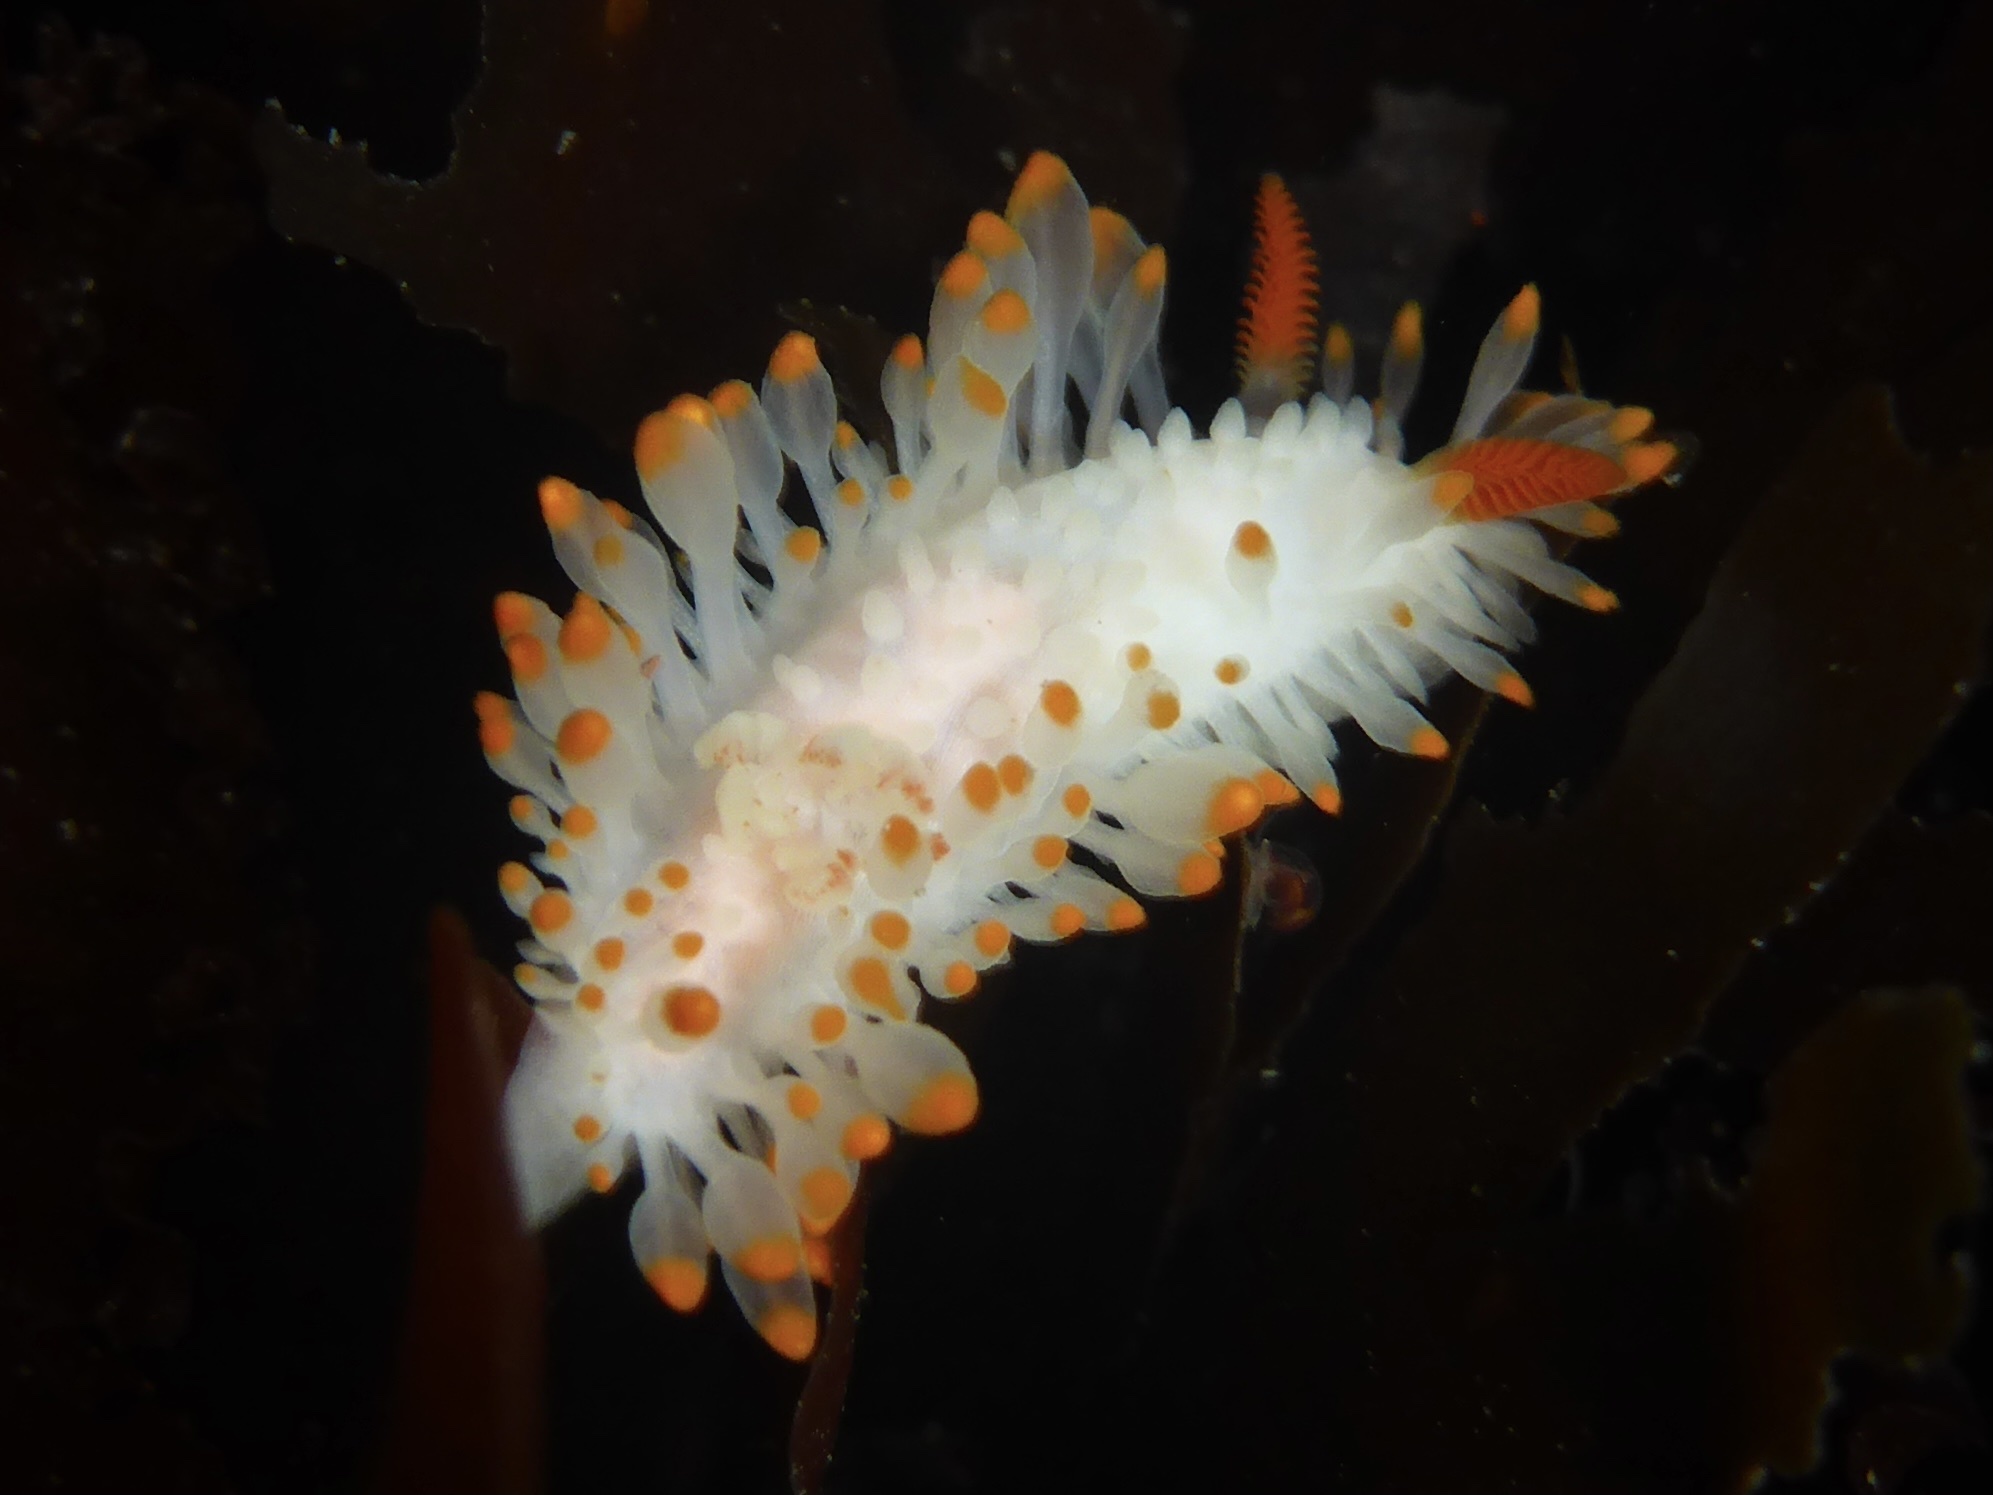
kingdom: Animalia
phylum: Mollusca
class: Gastropoda
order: Nudibranchia
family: Polyceridae
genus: Limacia
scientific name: Limacia cockerelli
